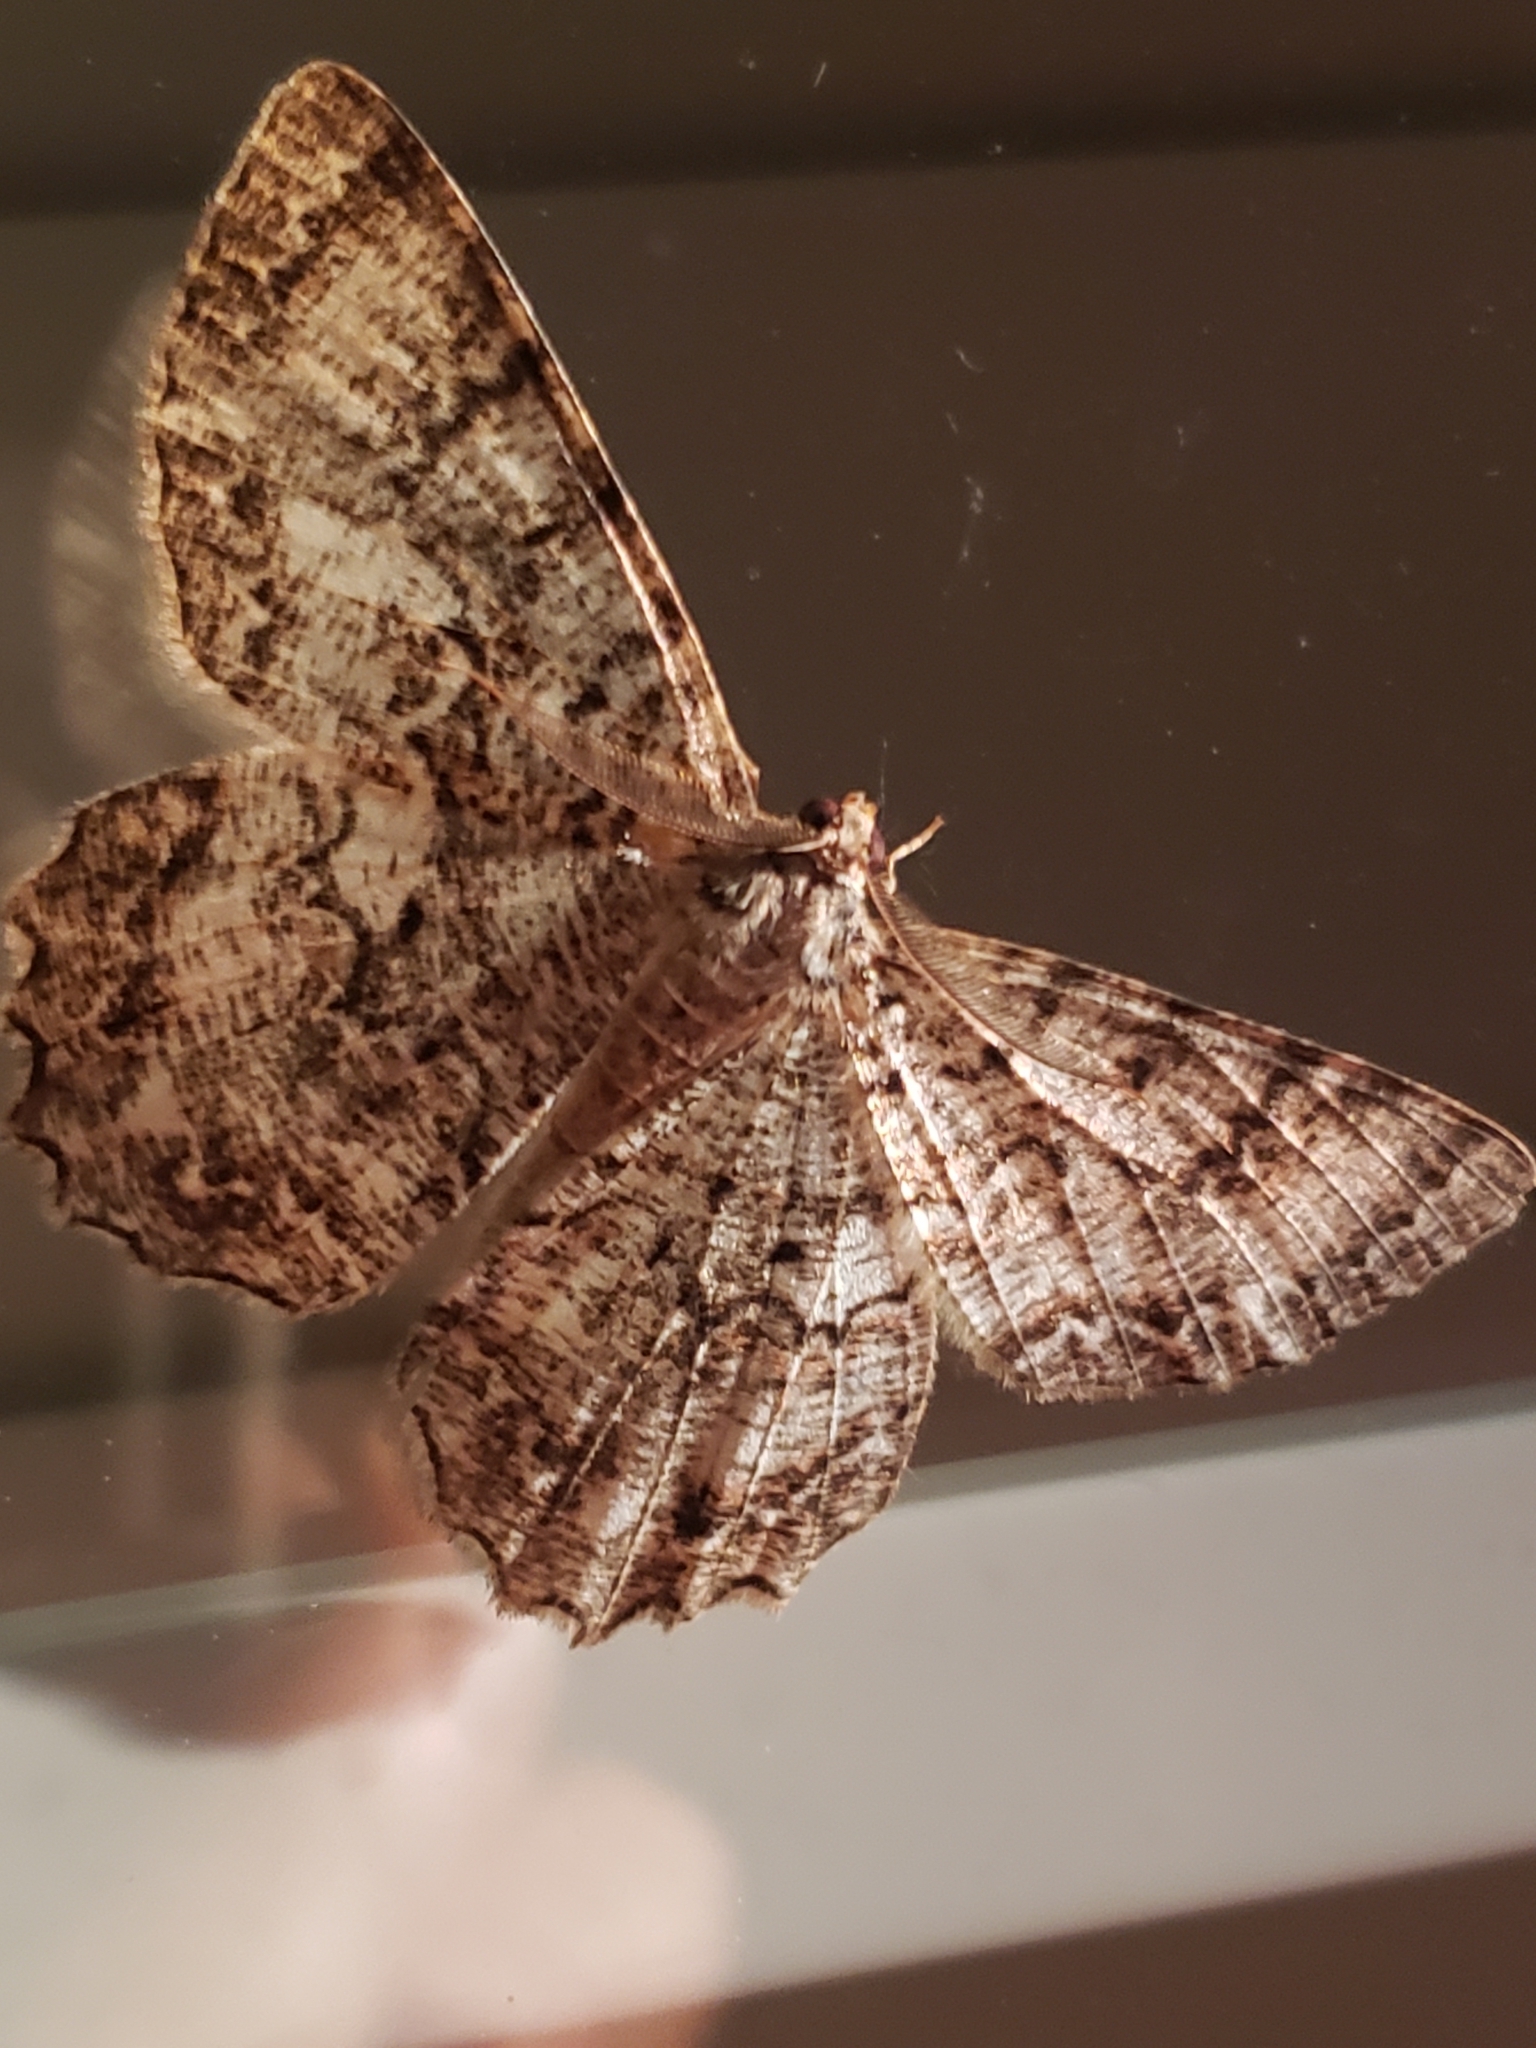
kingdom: Animalia
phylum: Arthropoda
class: Insecta
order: Lepidoptera
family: Geometridae
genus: Epimecis
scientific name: Epimecis hortaria
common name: Tulip-tree beauty
